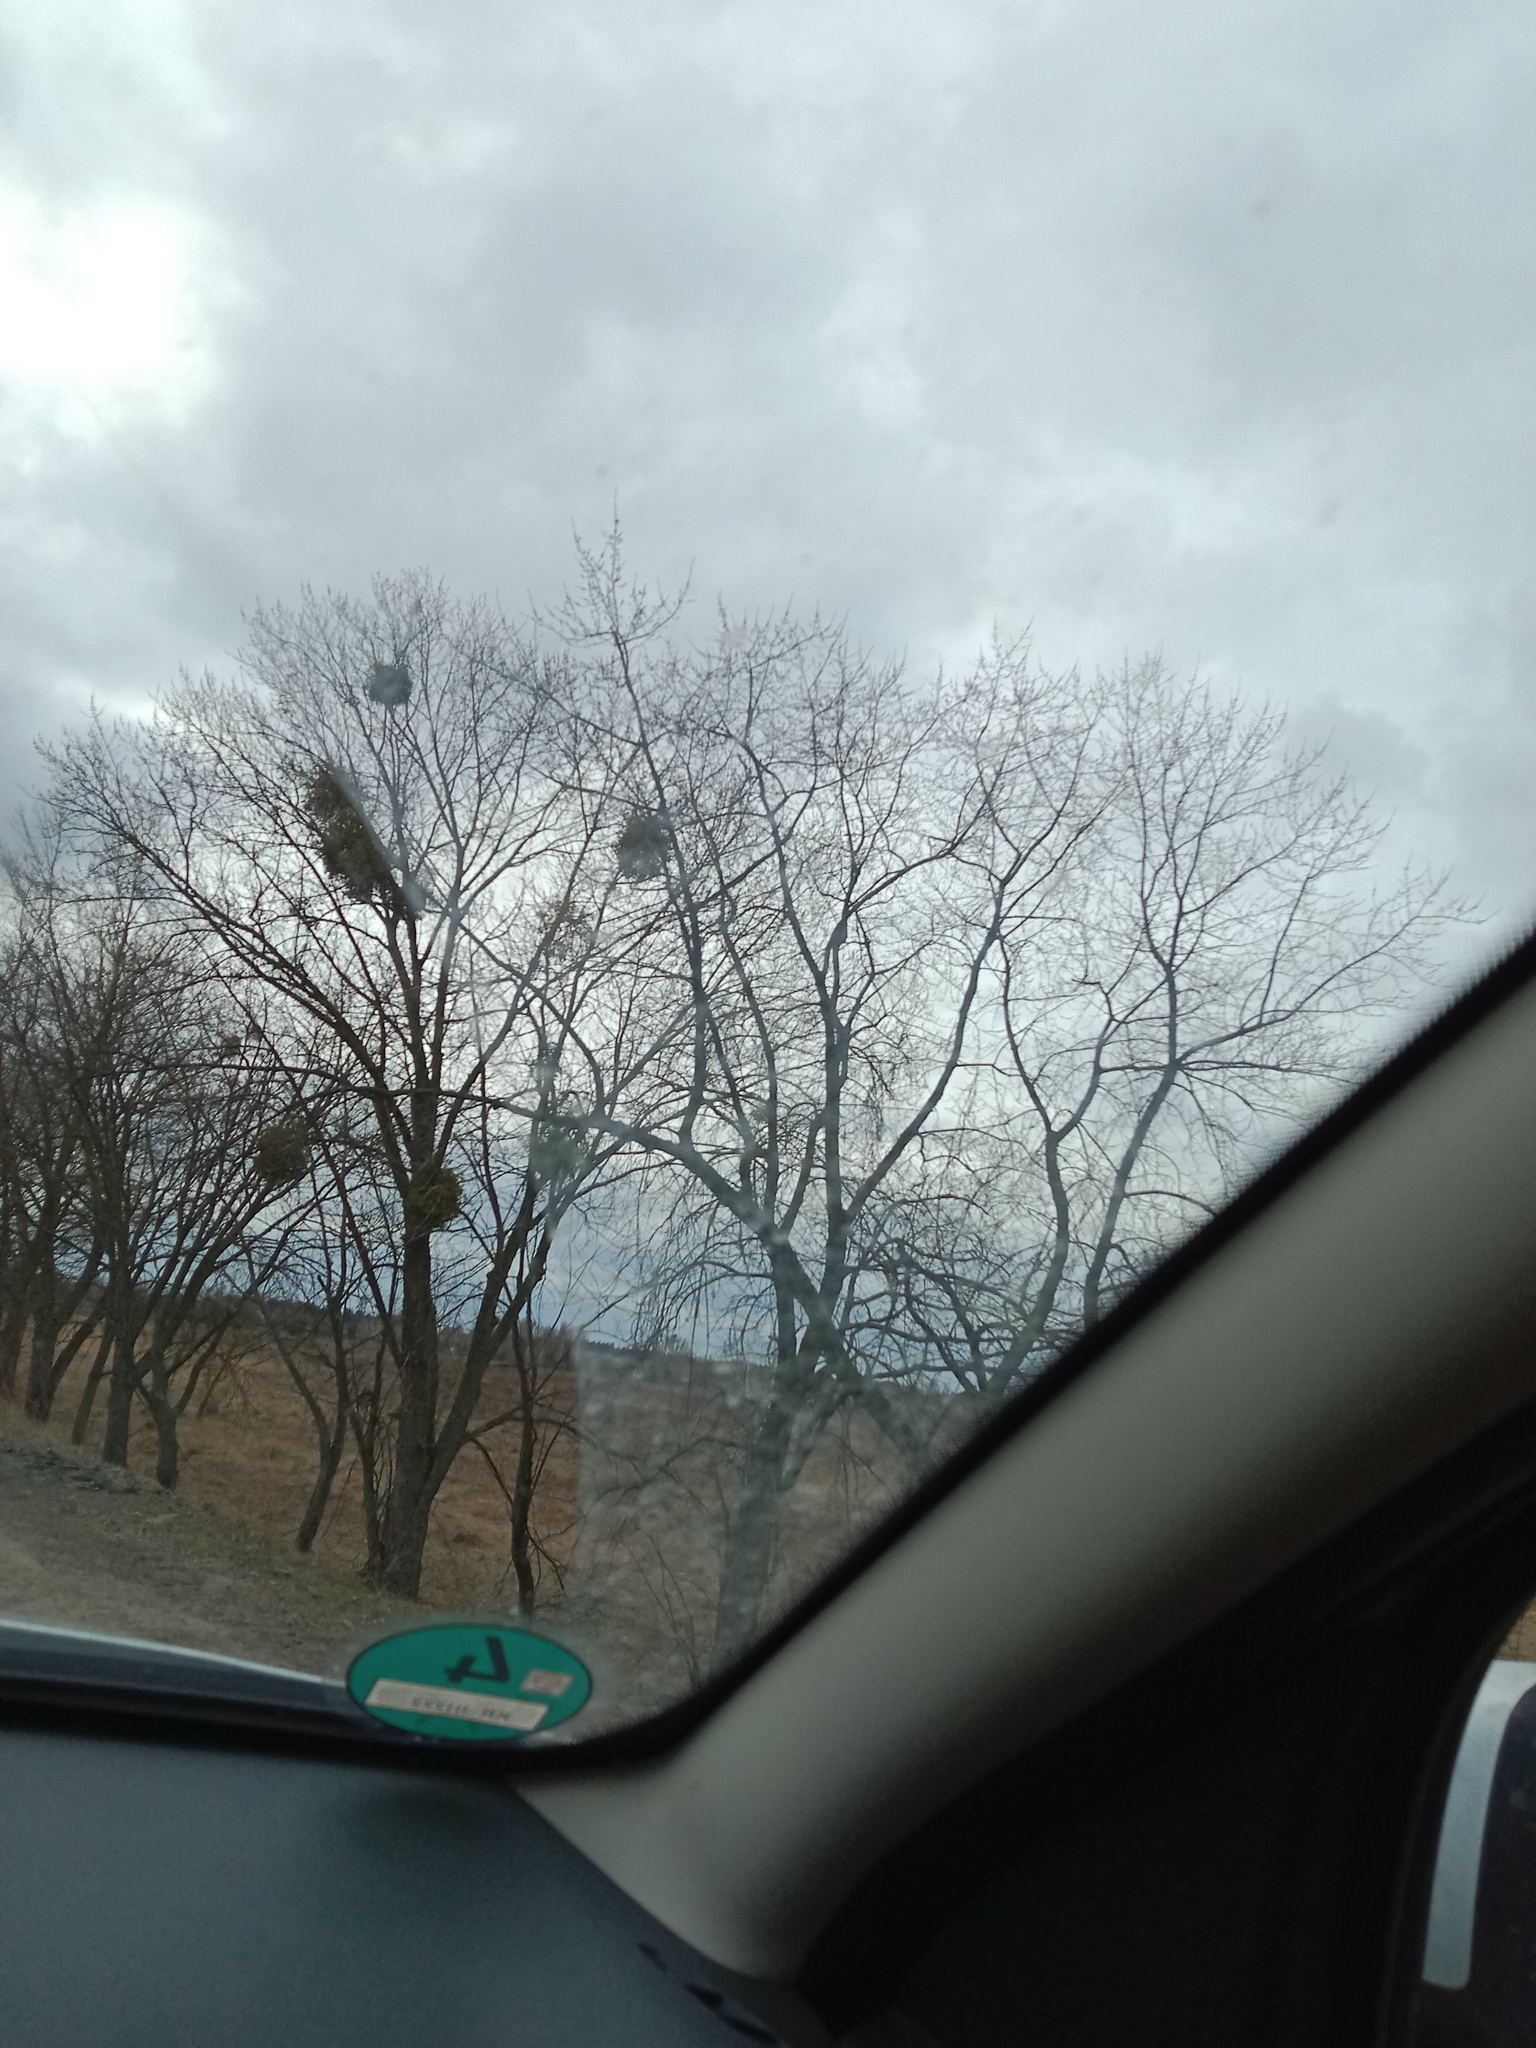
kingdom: Plantae
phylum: Tracheophyta
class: Magnoliopsida
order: Santalales
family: Viscaceae
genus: Viscum
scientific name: Viscum album
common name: Mistletoe
